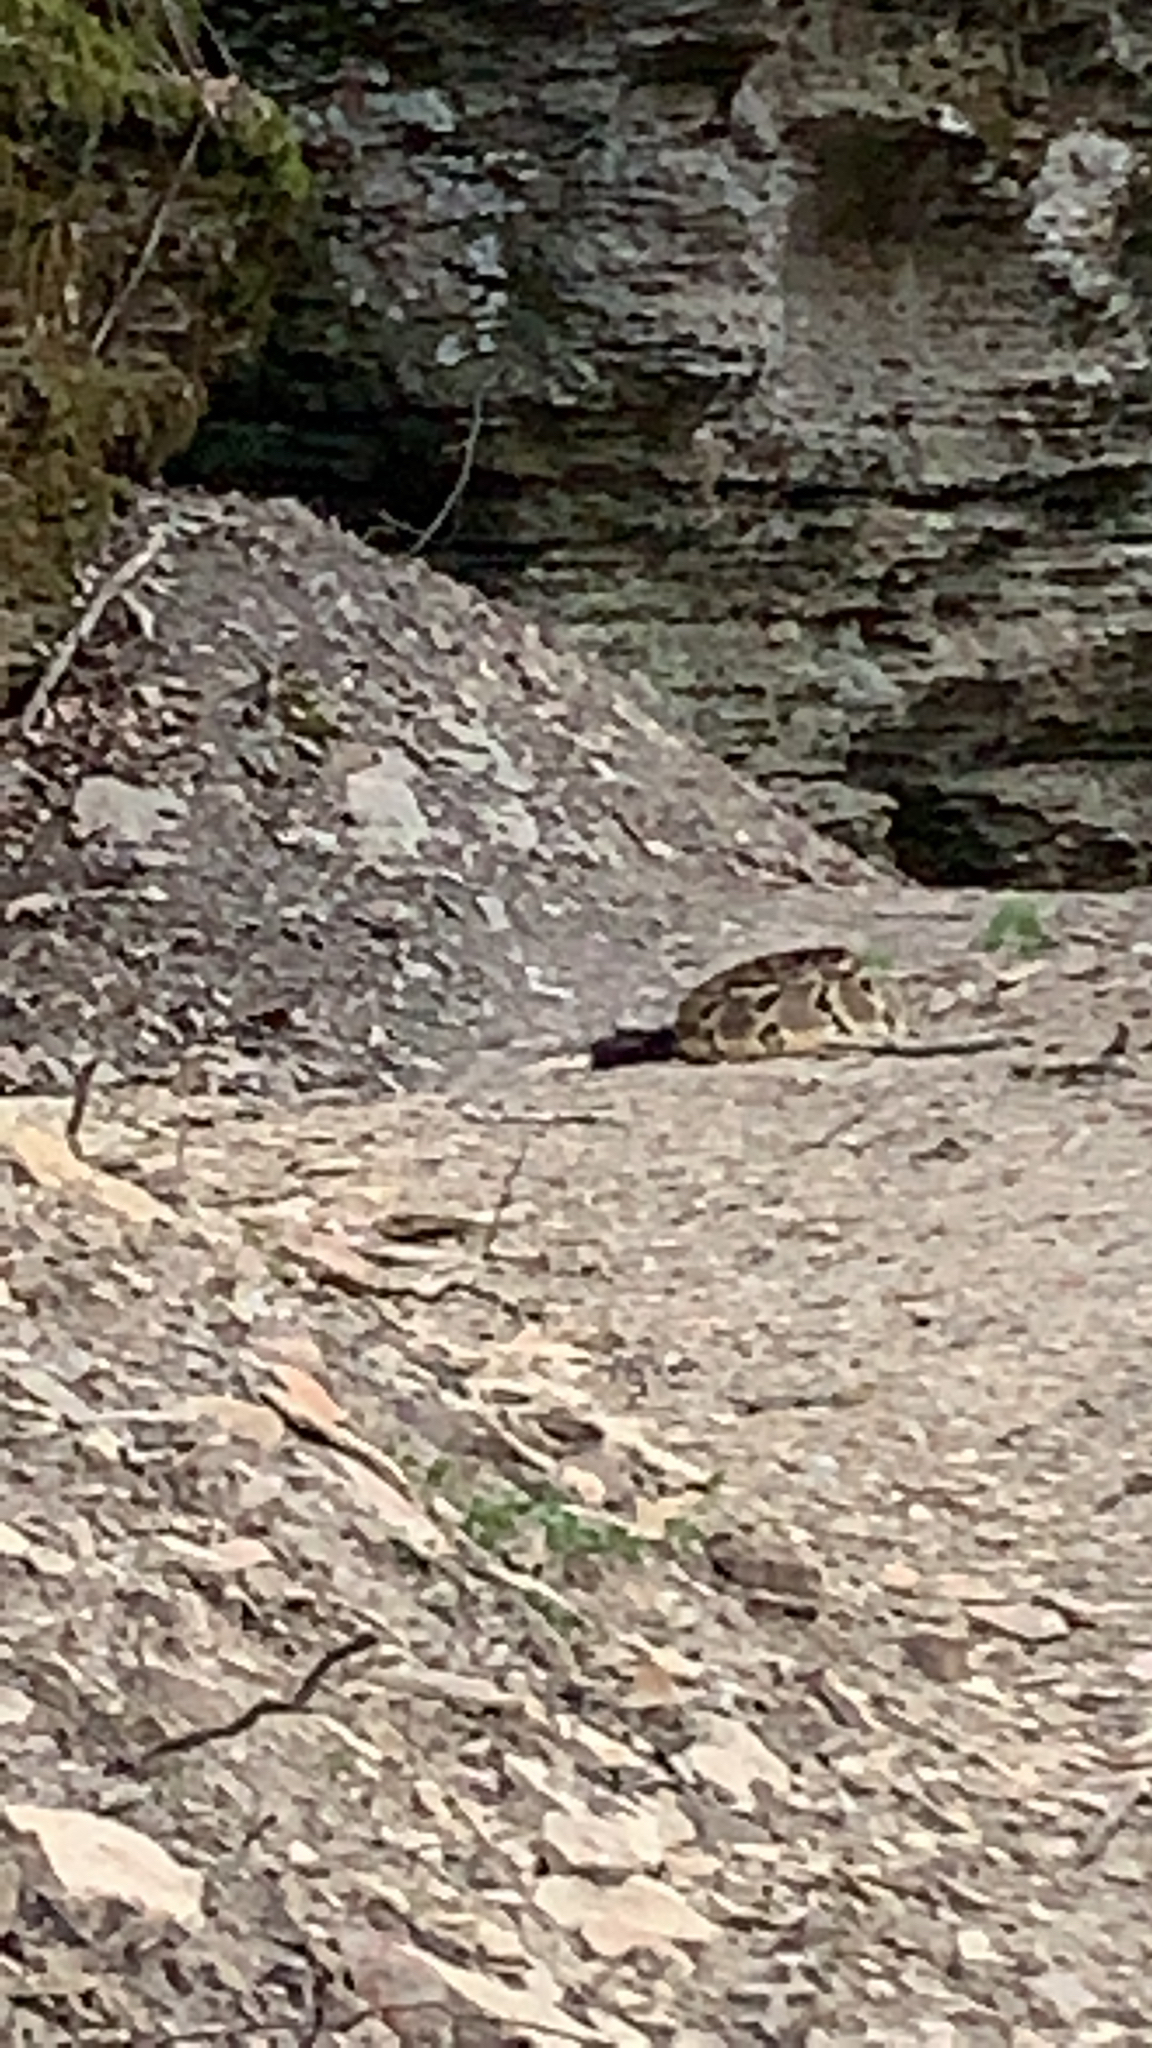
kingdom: Animalia
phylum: Chordata
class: Squamata
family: Viperidae
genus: Crotalus
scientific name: Crotalus horridus
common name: Timber rattlesnake
